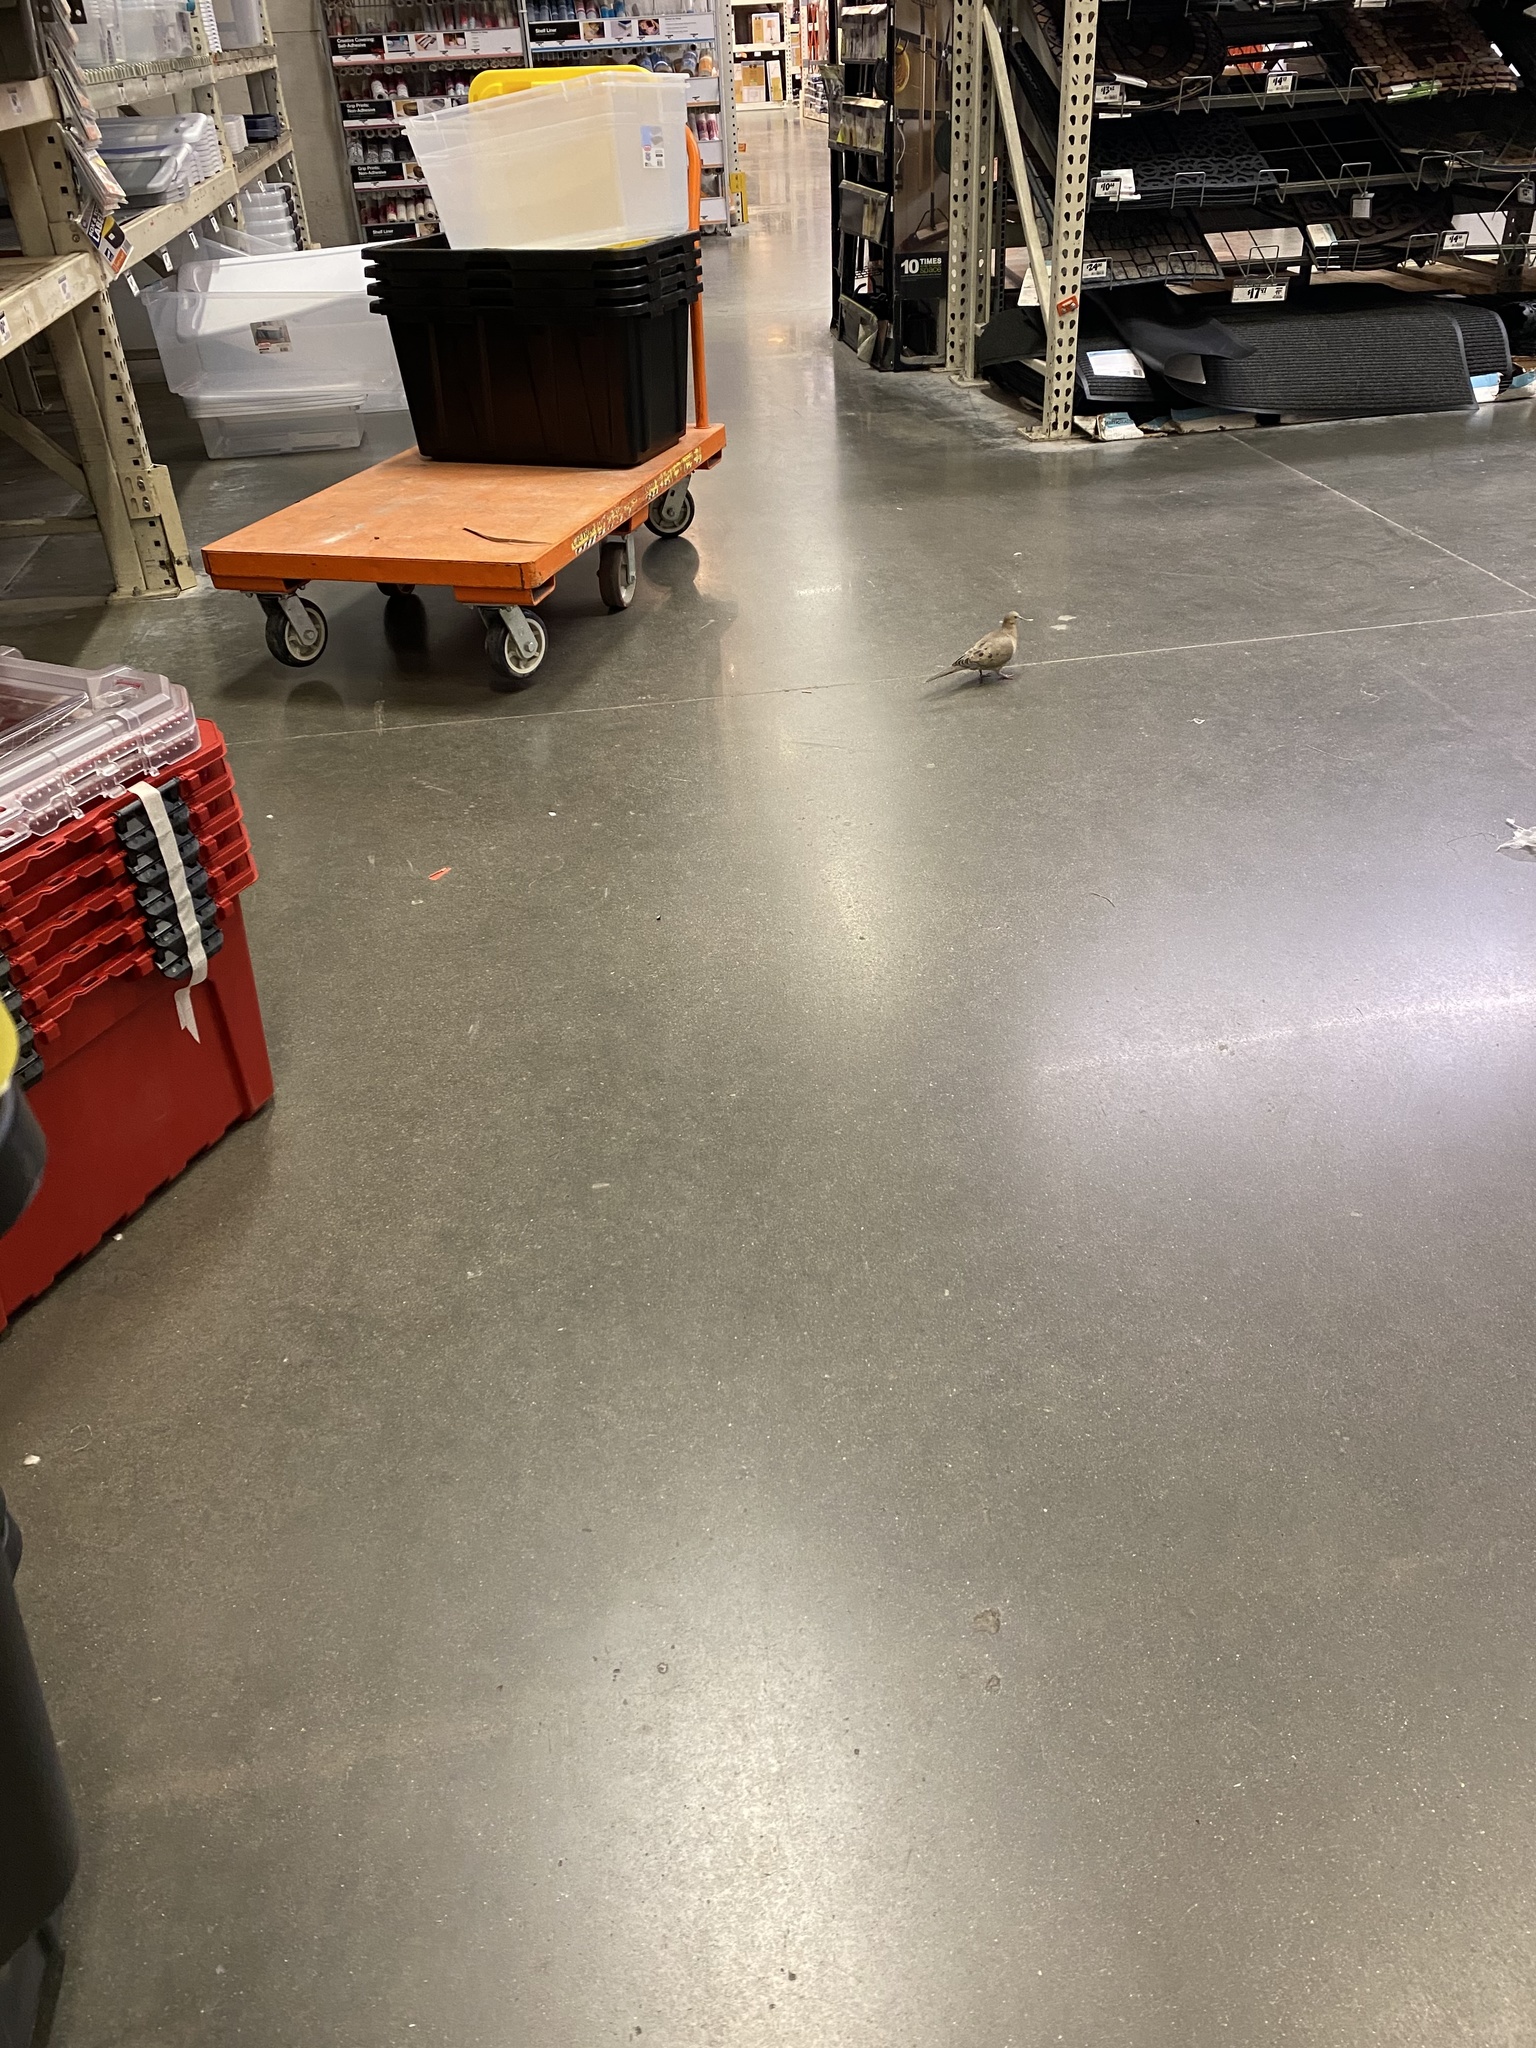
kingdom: Animalia
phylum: Chordata
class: Aves
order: Columbiformes
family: Columbidae
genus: Zenaida
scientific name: Zenaida macroura
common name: Mourning dove
